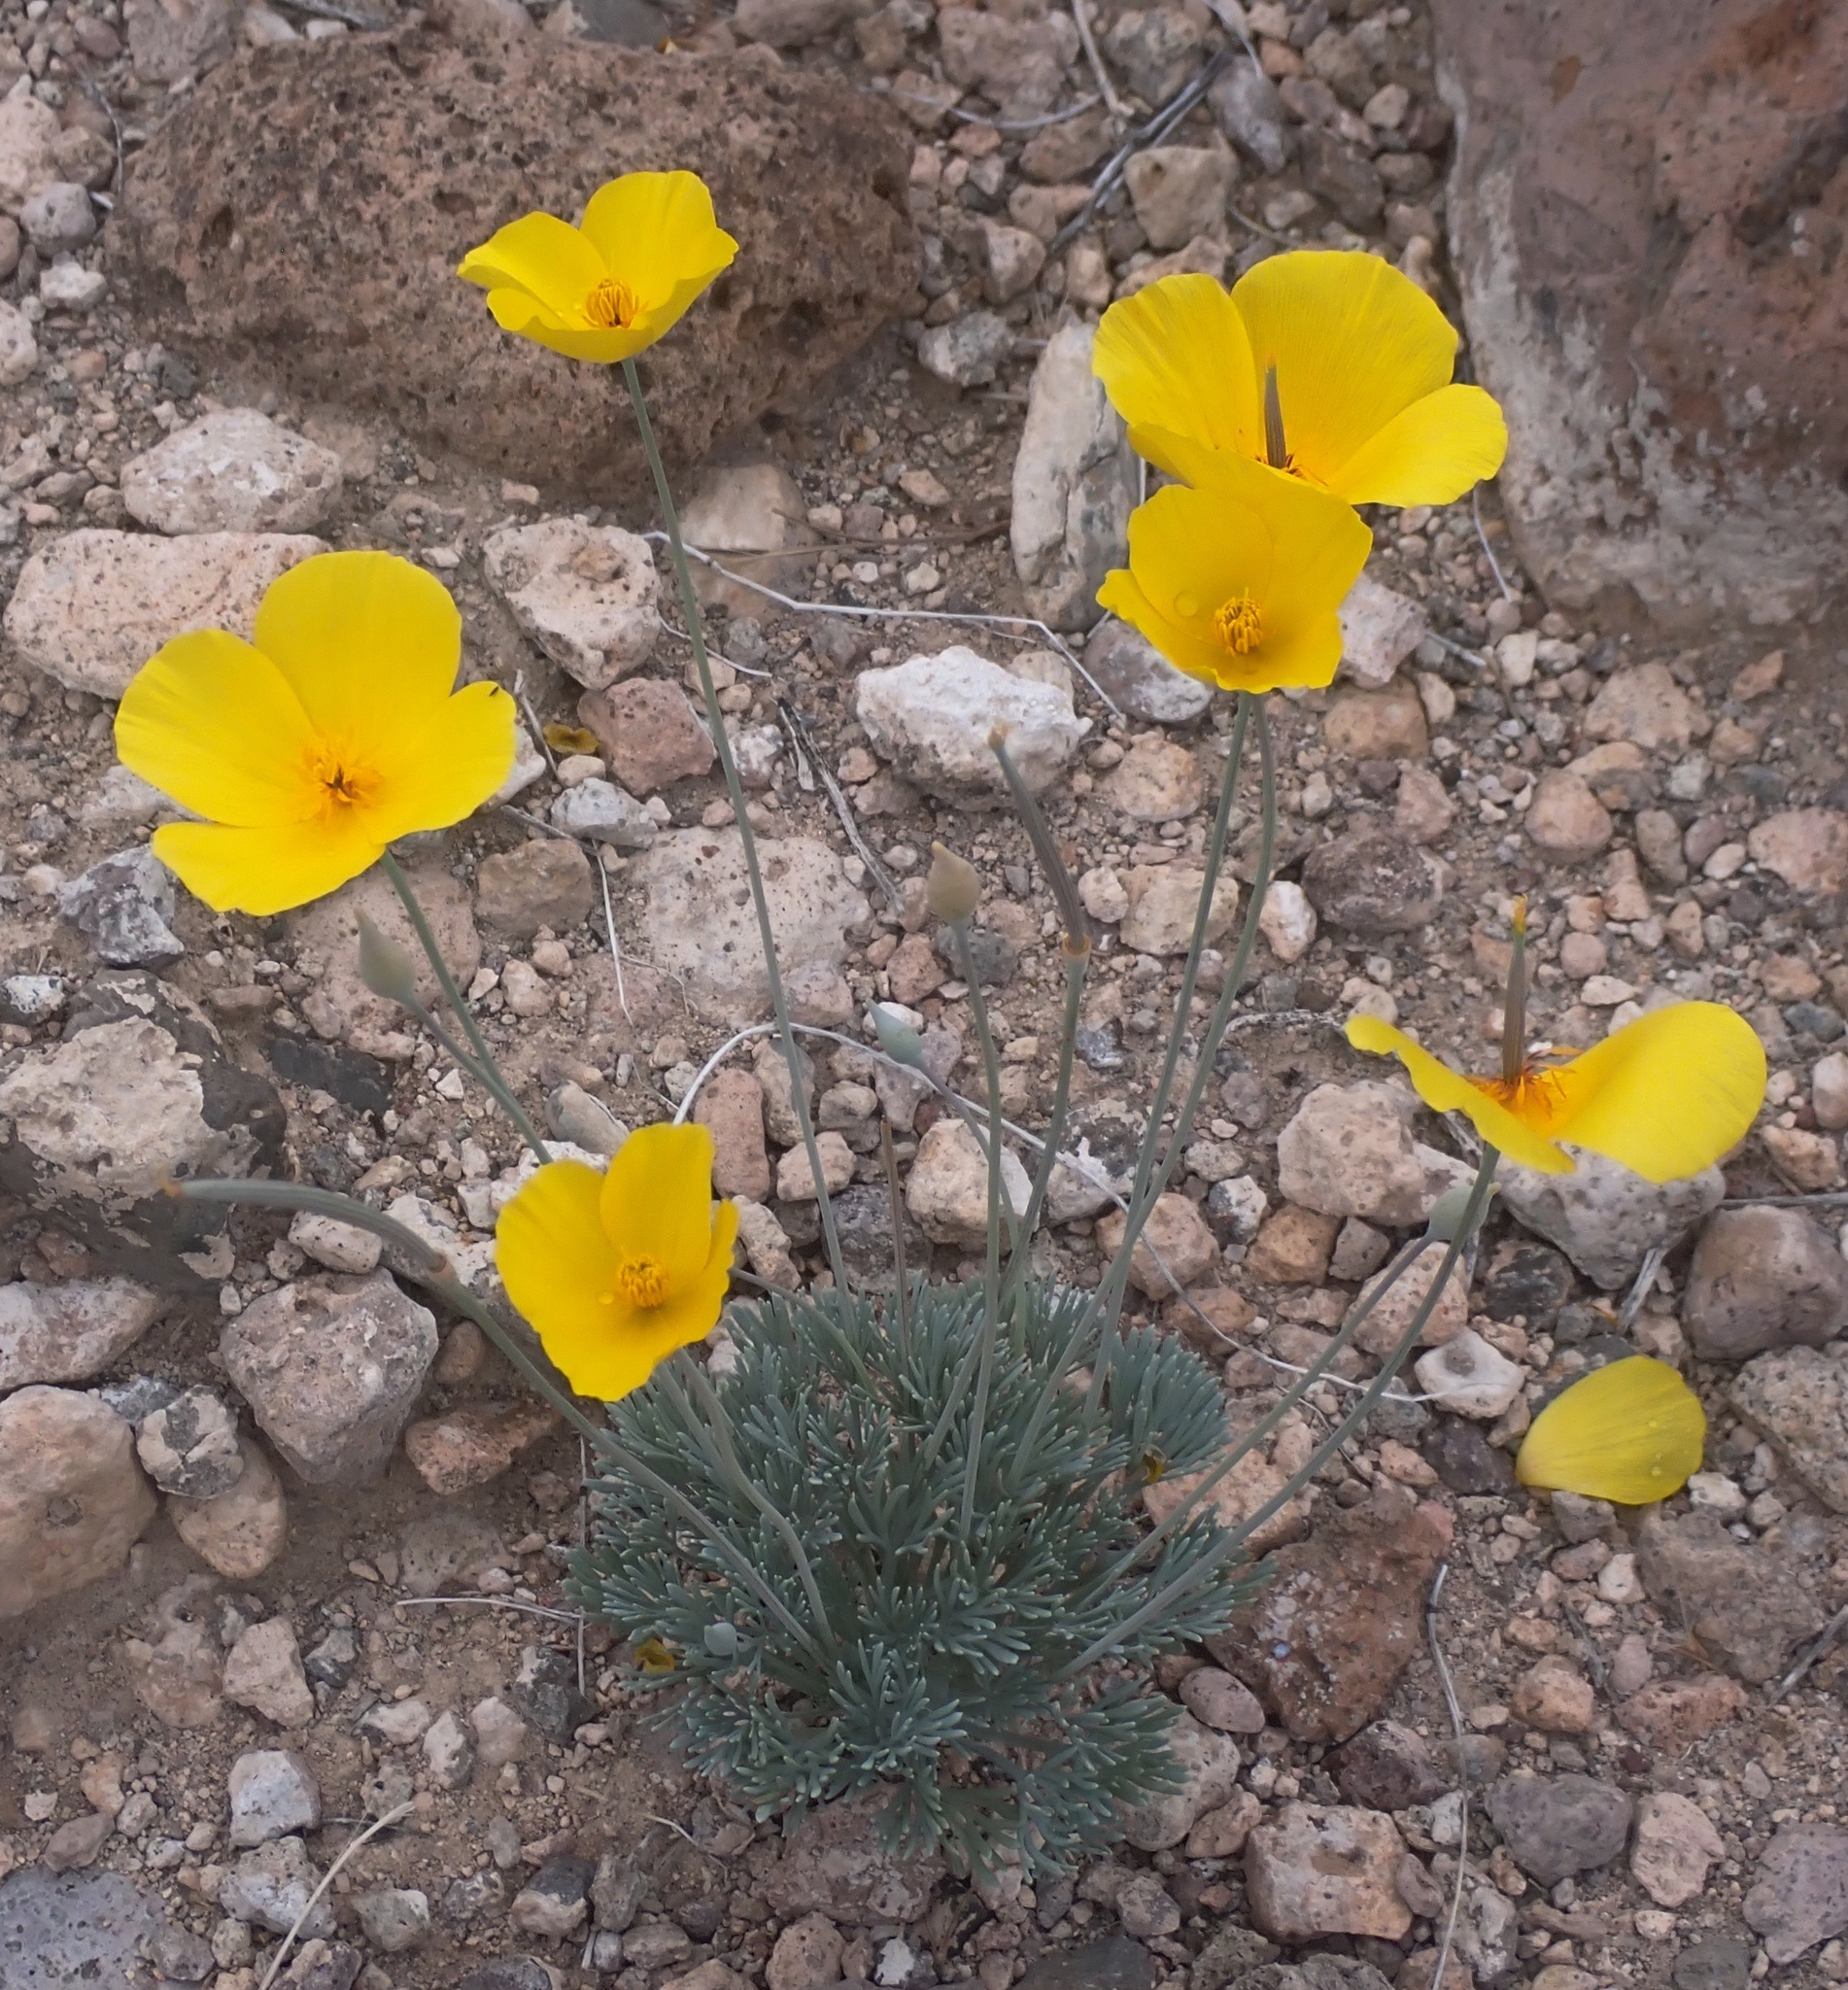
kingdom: Plantae
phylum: Tracheophyta
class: Magnoliopsida
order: Ranunculales
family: Papaveraceae
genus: Eschscholzia
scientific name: Eschscholzia glyptosperma
